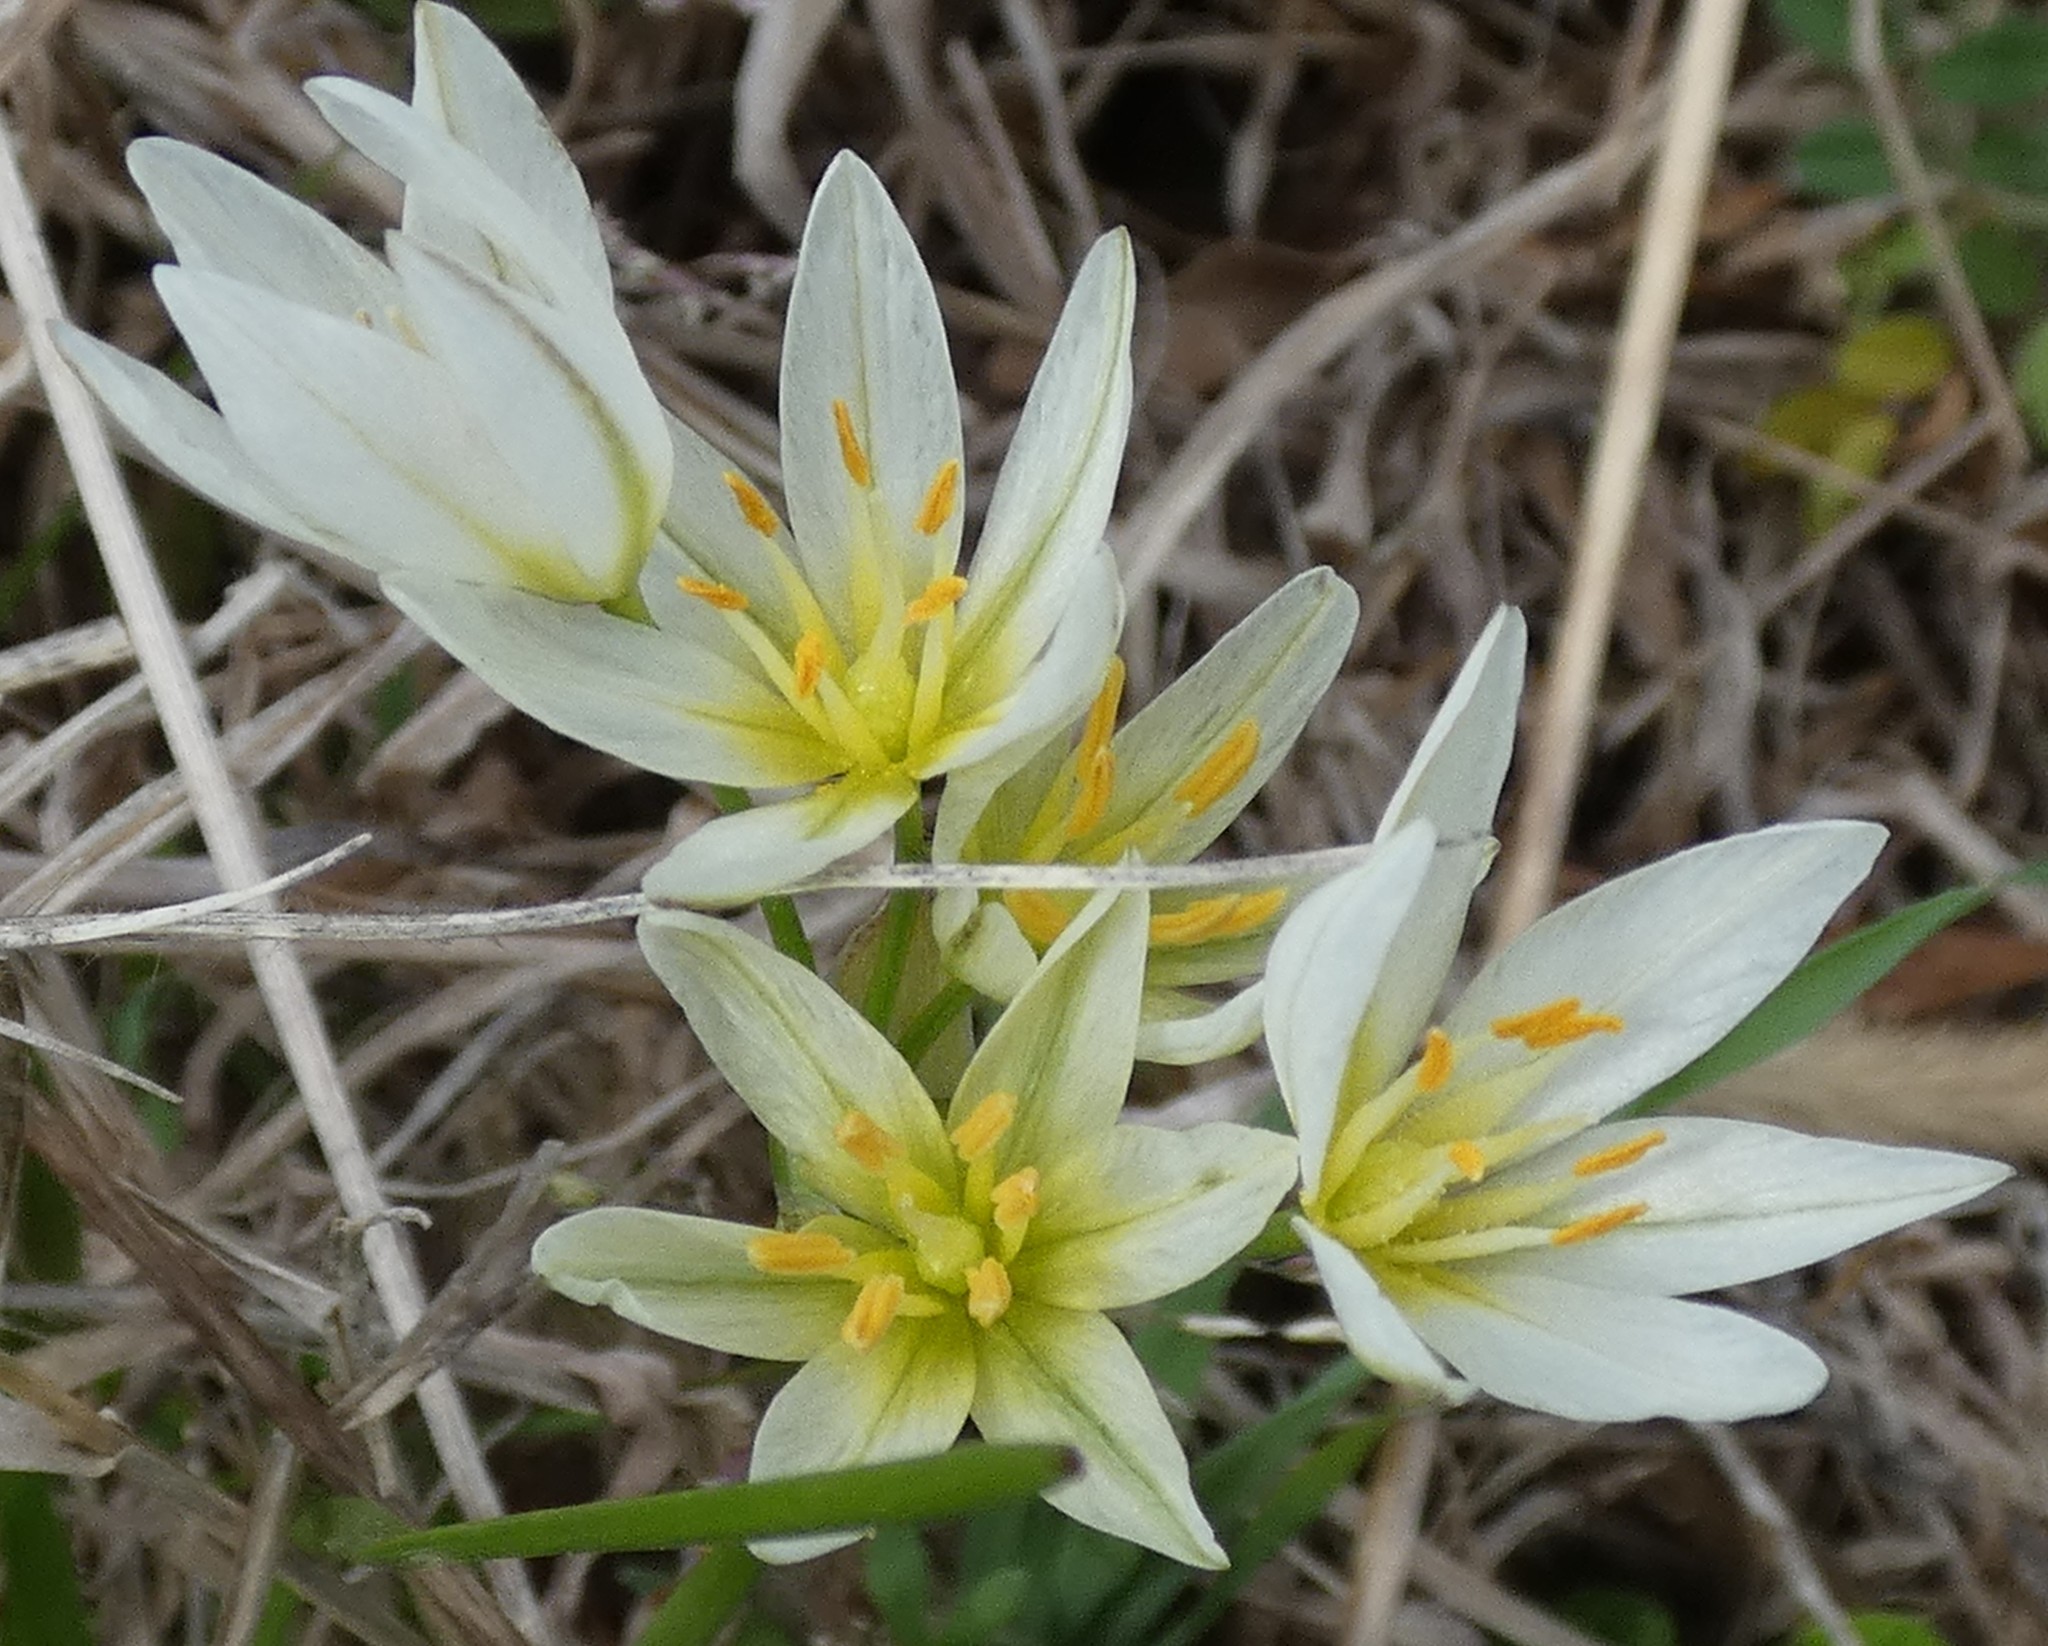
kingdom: Plantae
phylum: Tracheophyta
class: Liliopsida
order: Asparagales
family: Amaryllidaceae
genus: Nothoscordum
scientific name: Nothoscordum bivalve
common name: Crow-poison
